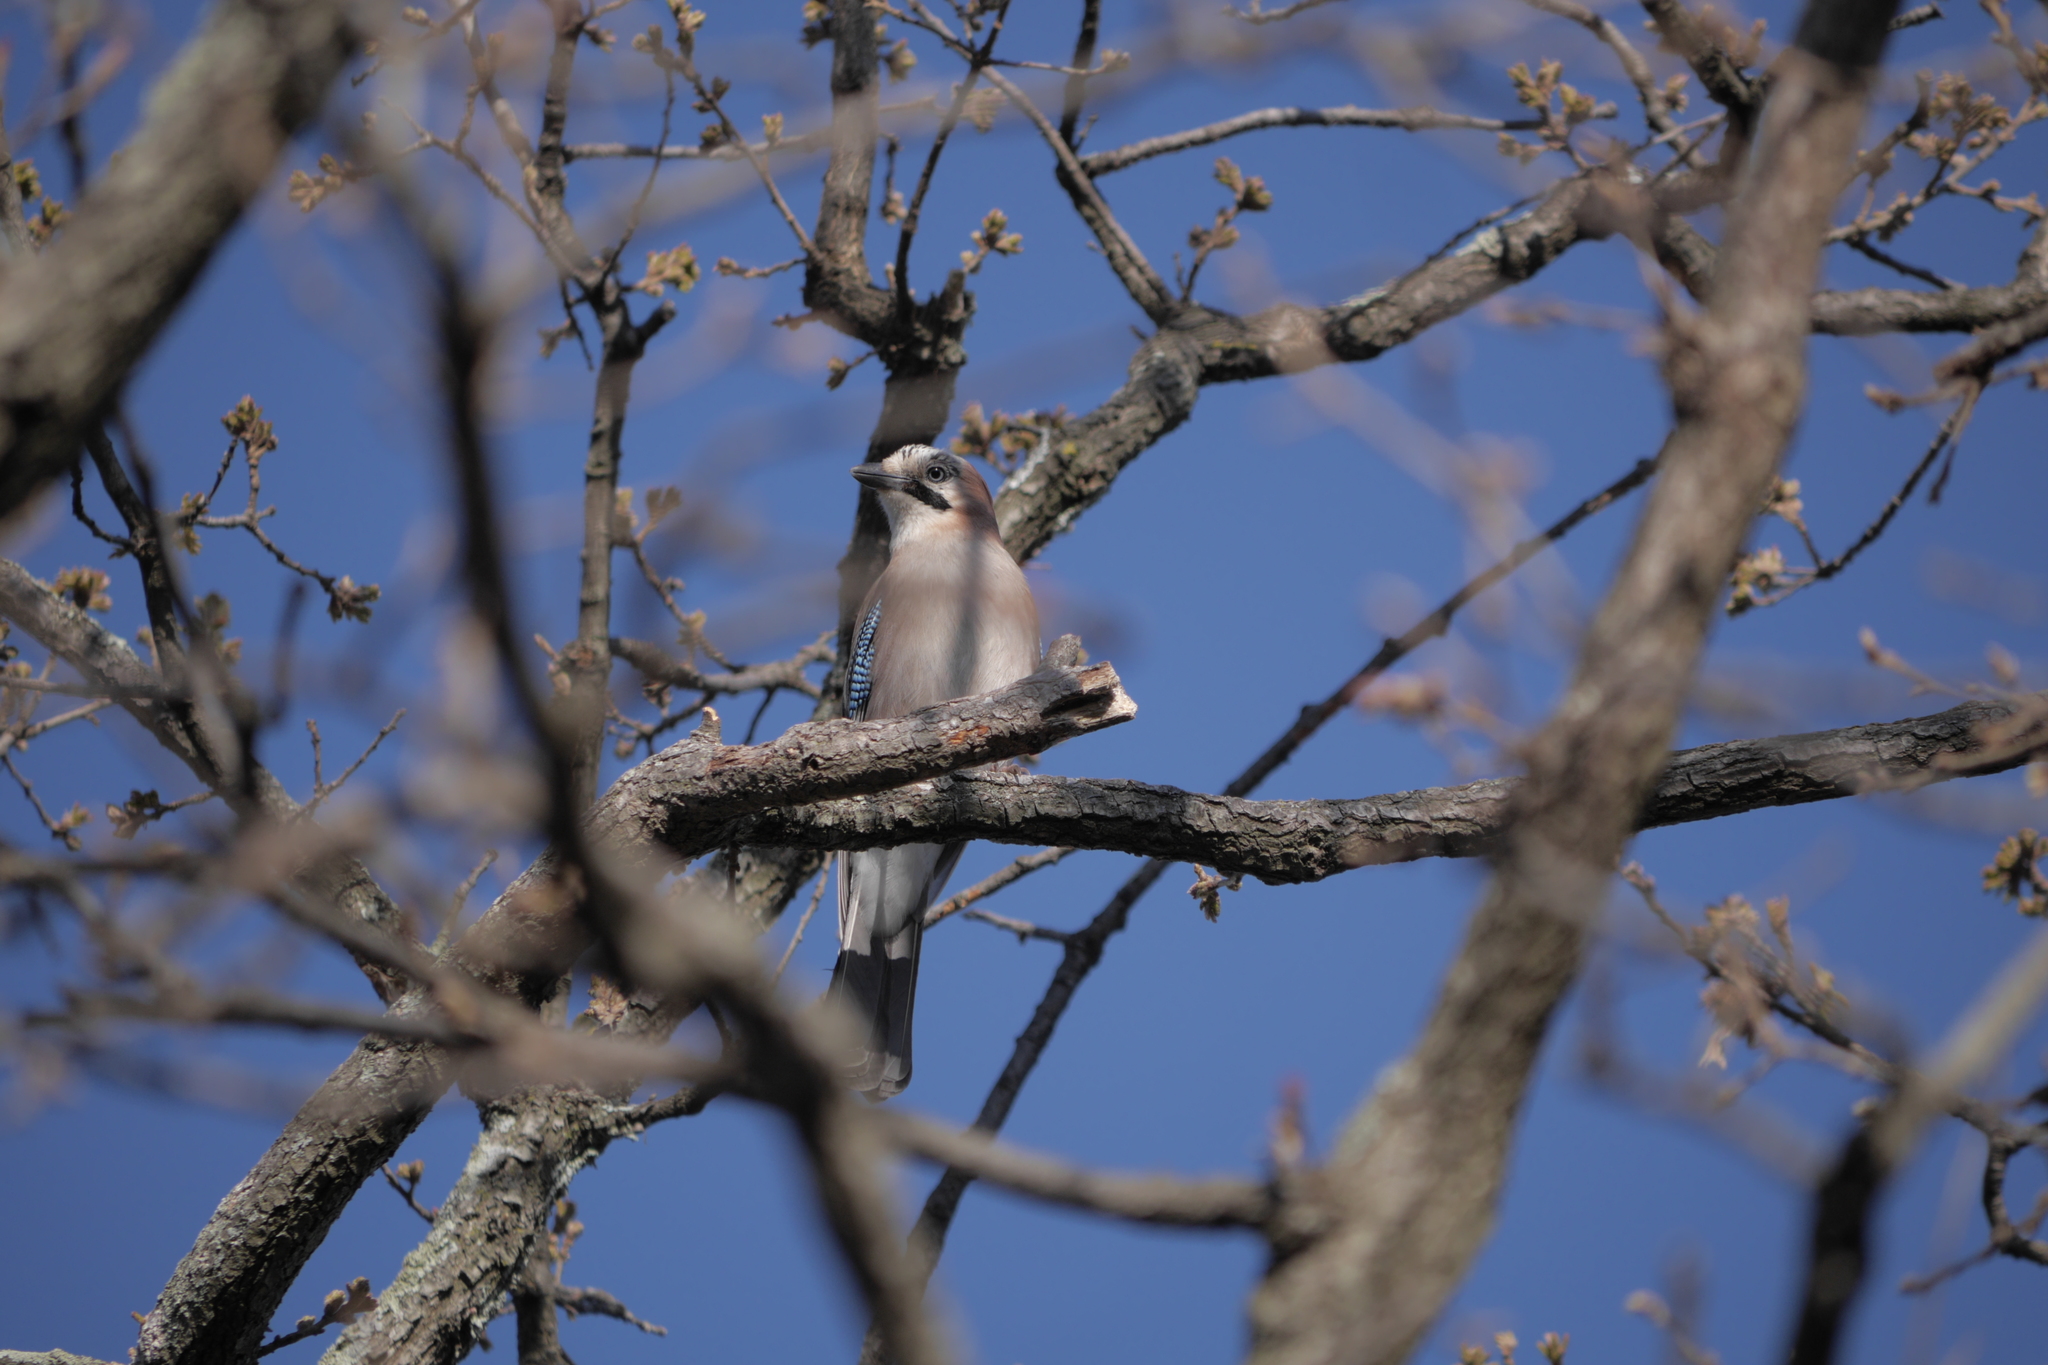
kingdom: Animalia
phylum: Chordata
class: Aves
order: Passeriformes
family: Corvidae
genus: Garrulus
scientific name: Garrulus glandarius
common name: Eurasian jay
